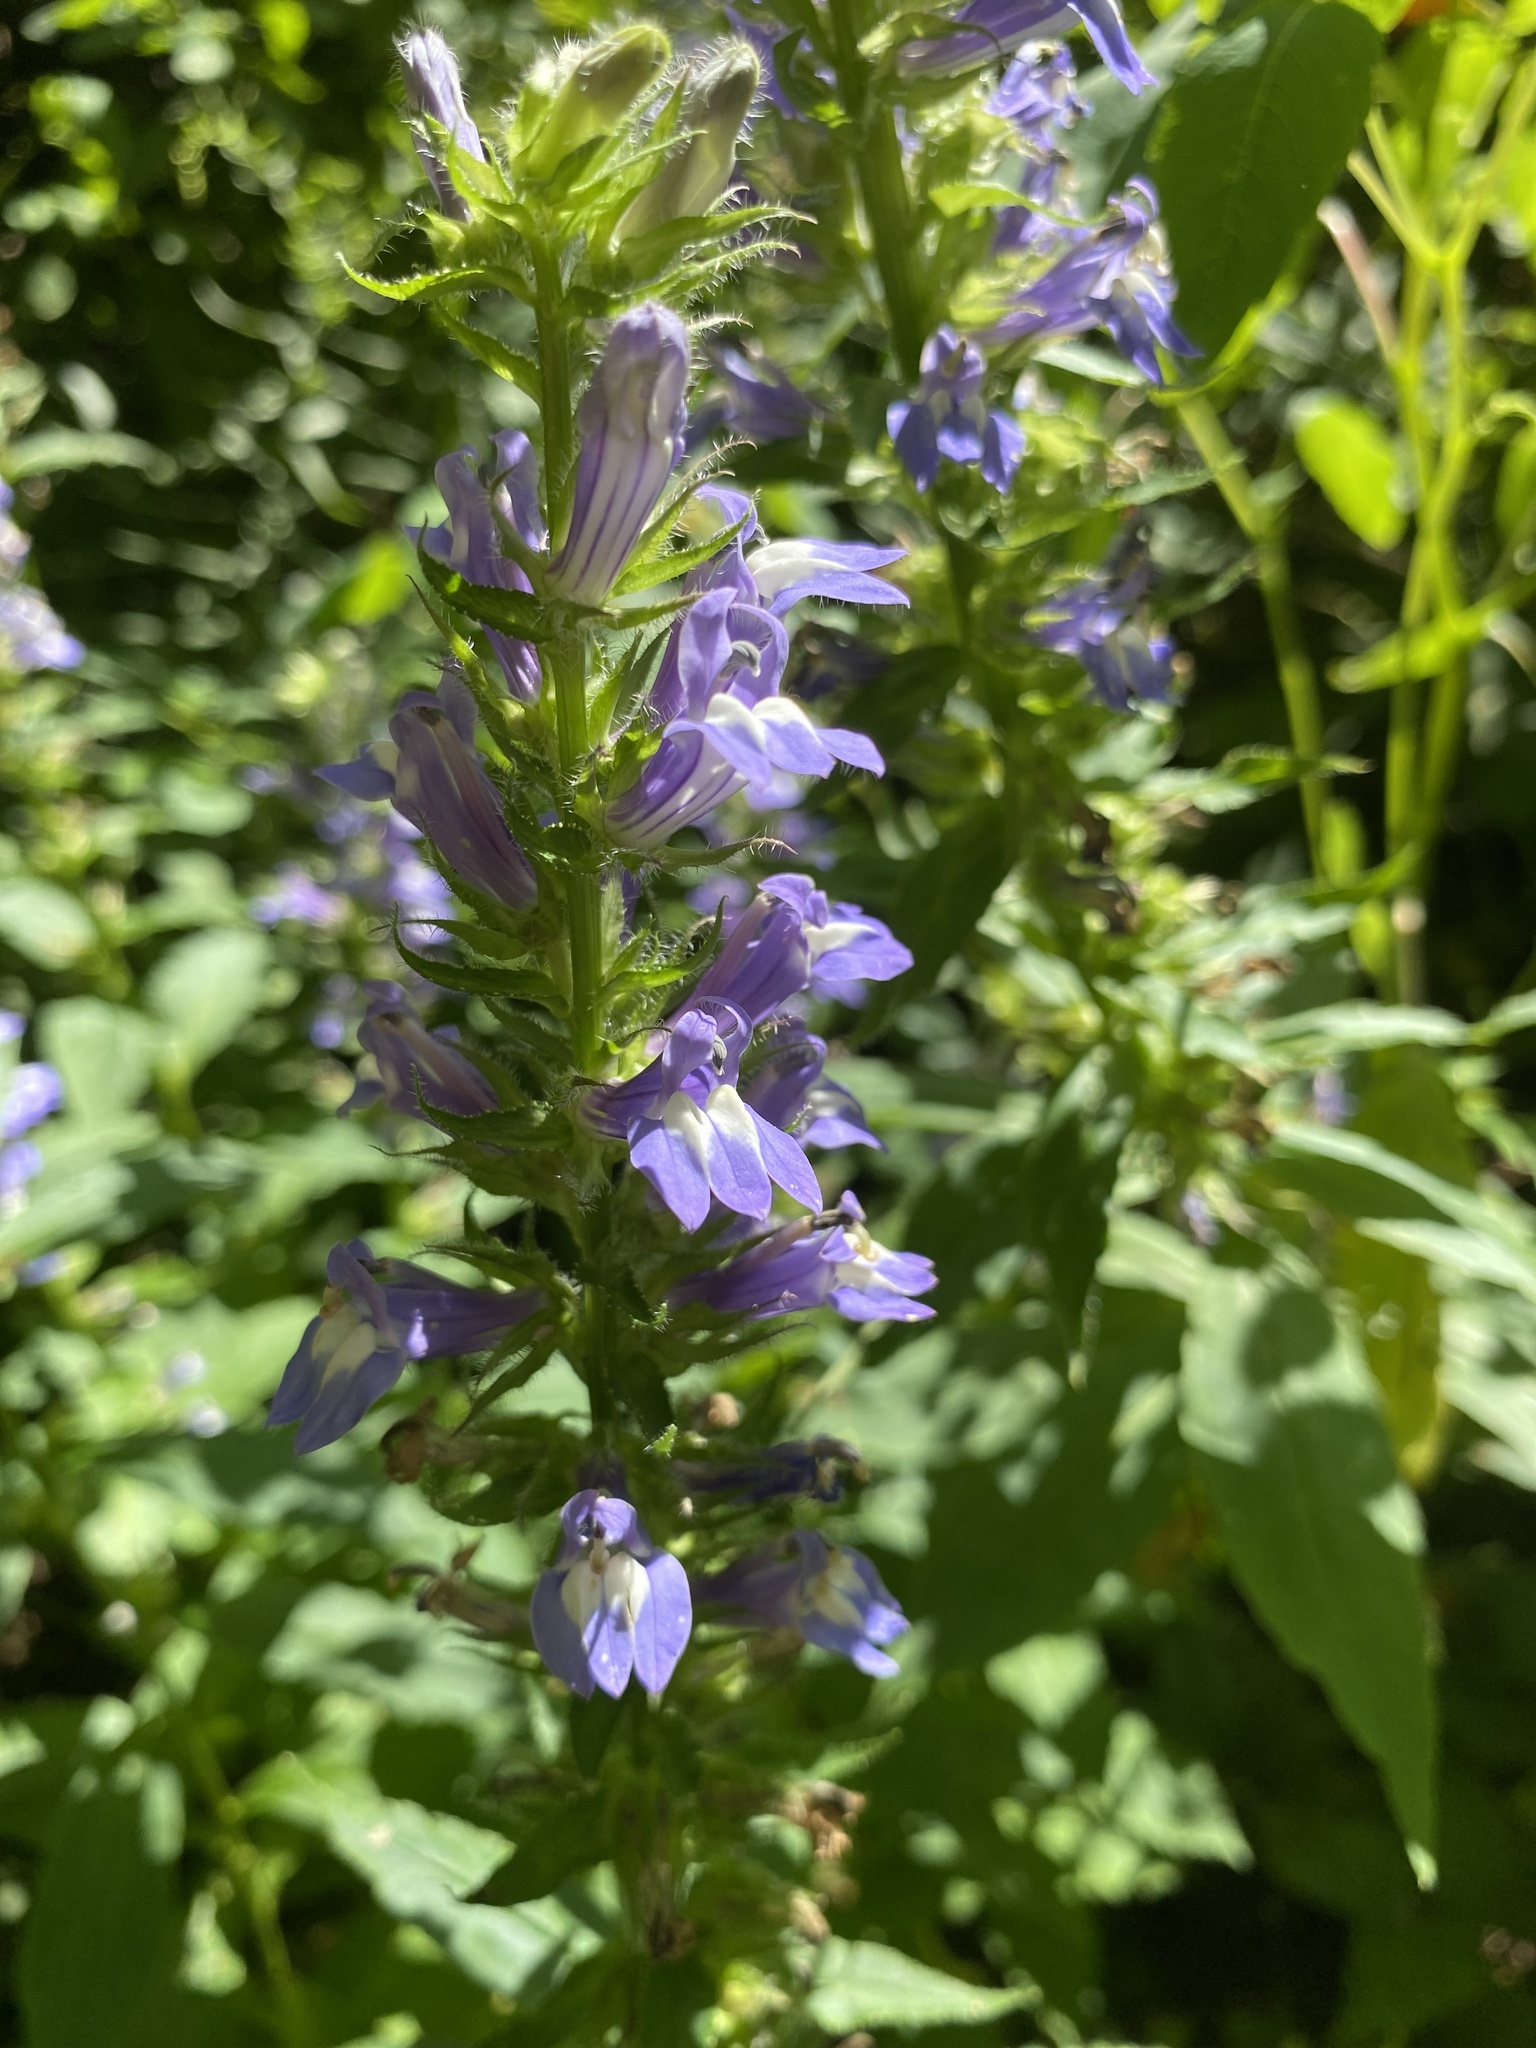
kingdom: Plantae
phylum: Tracheophyta
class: Magnoliopsida
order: Asterales
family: Campanulaceae
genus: Lobelia
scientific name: Lobelia siphilitica
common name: Great lobelia
